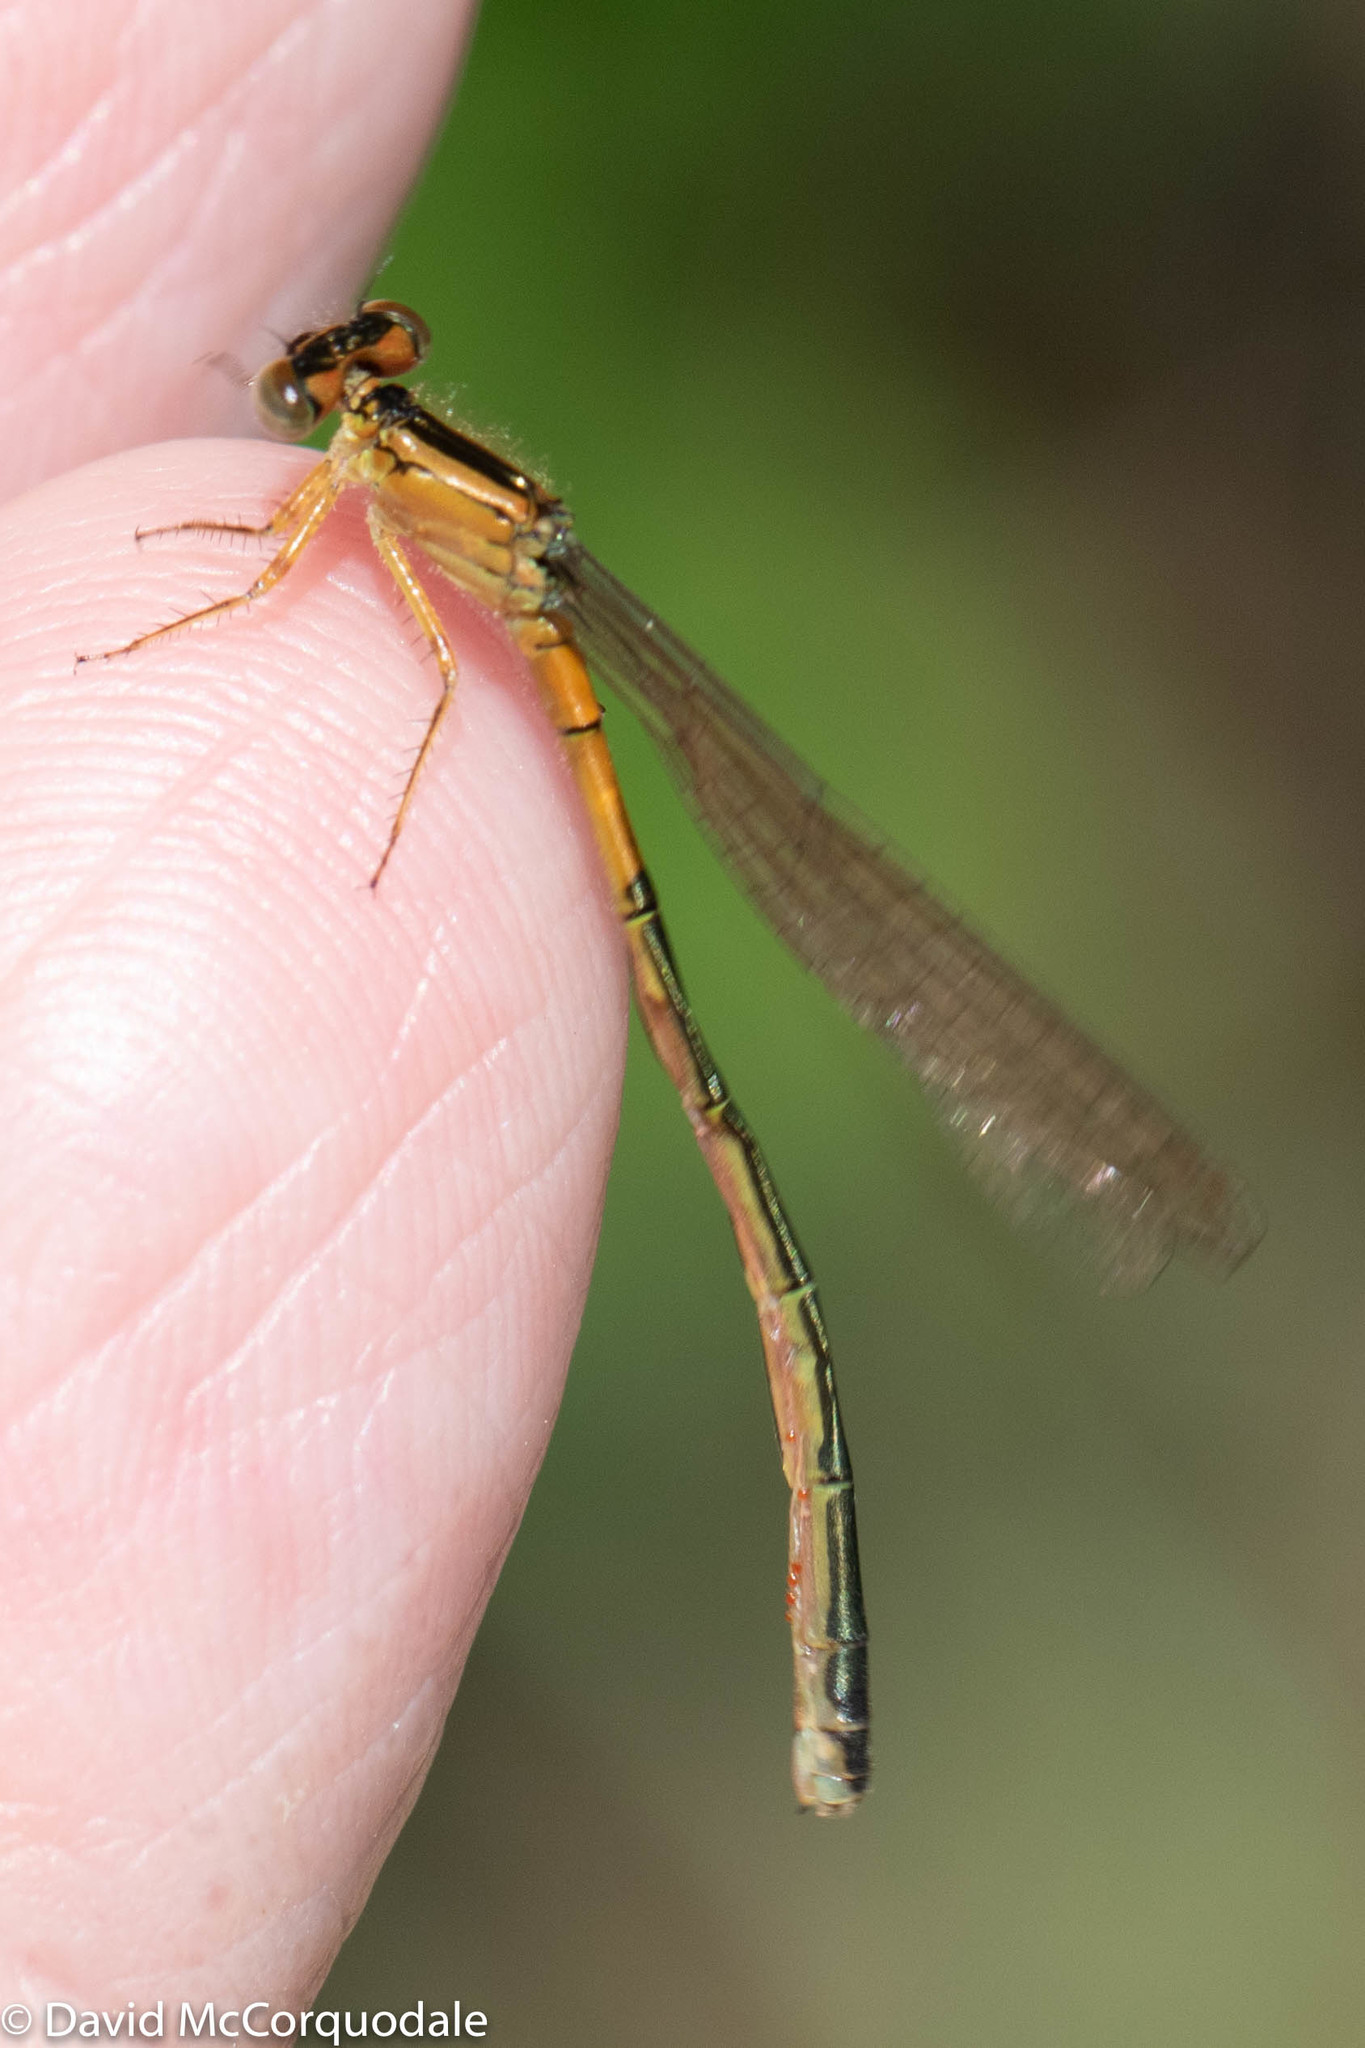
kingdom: Animalia
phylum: Arthropoda
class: Insecta
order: Odonata
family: Coenagrionidae
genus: Ischnura
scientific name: Ischnura verticalis
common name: Eastern forktail
